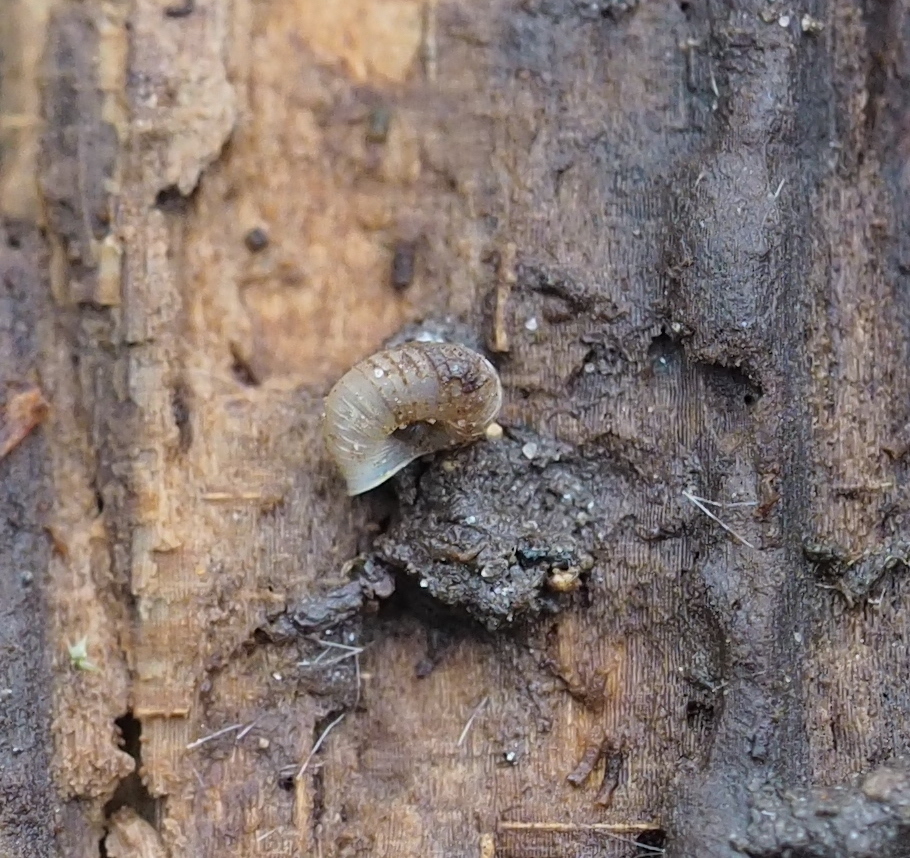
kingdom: Animalia
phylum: Mollusca
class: Gastropoda
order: Stylommatophora
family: Valloniidae
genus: Vallonia
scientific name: Vallonia costata
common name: Ribbed grass snail
